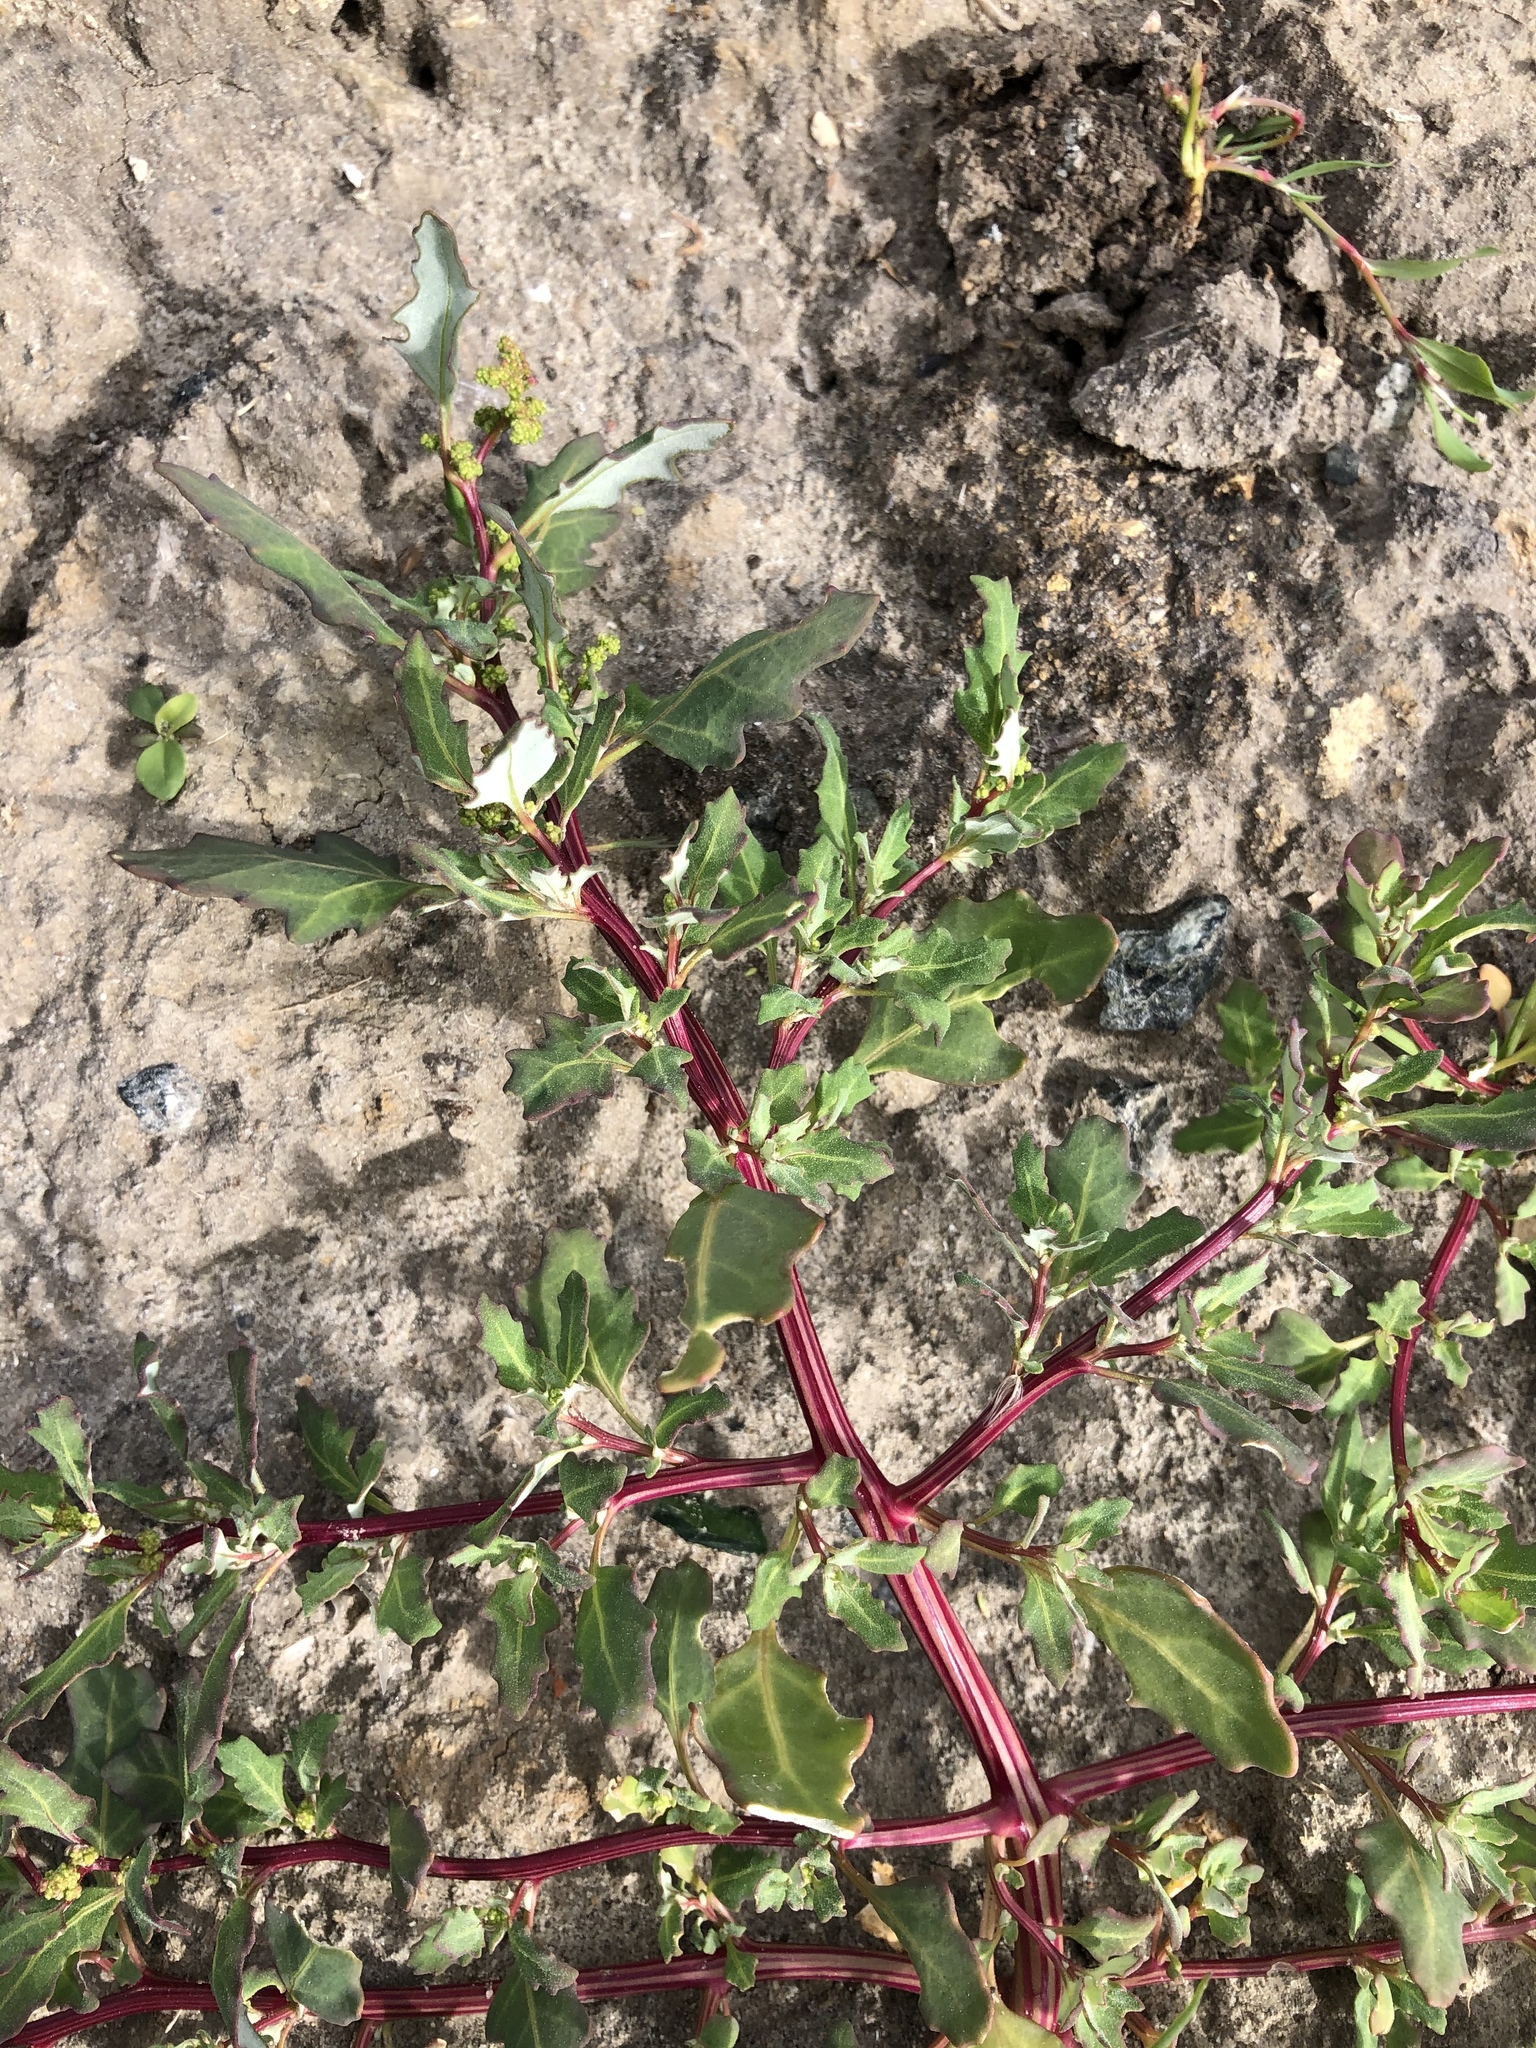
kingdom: Plantae
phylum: Tracheophyta
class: Magnoliopsida
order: Caryophyllales
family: Amaranthaceae
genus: Oxybasis
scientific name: Oxybasis glauca
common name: Glaucous goosefoot
